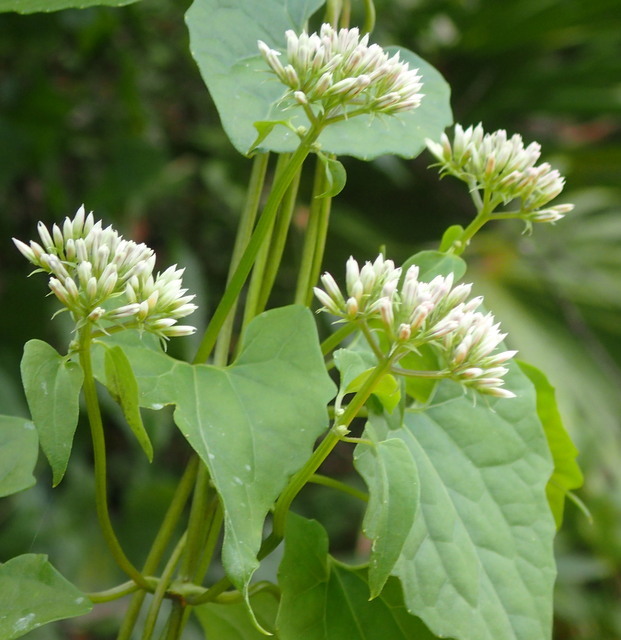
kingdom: Plantae
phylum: Tracheophyta
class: Magnoliopsida
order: Asterales
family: Asteraceae
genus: Mikania
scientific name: Mikania scandens
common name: Climbing hempvine
